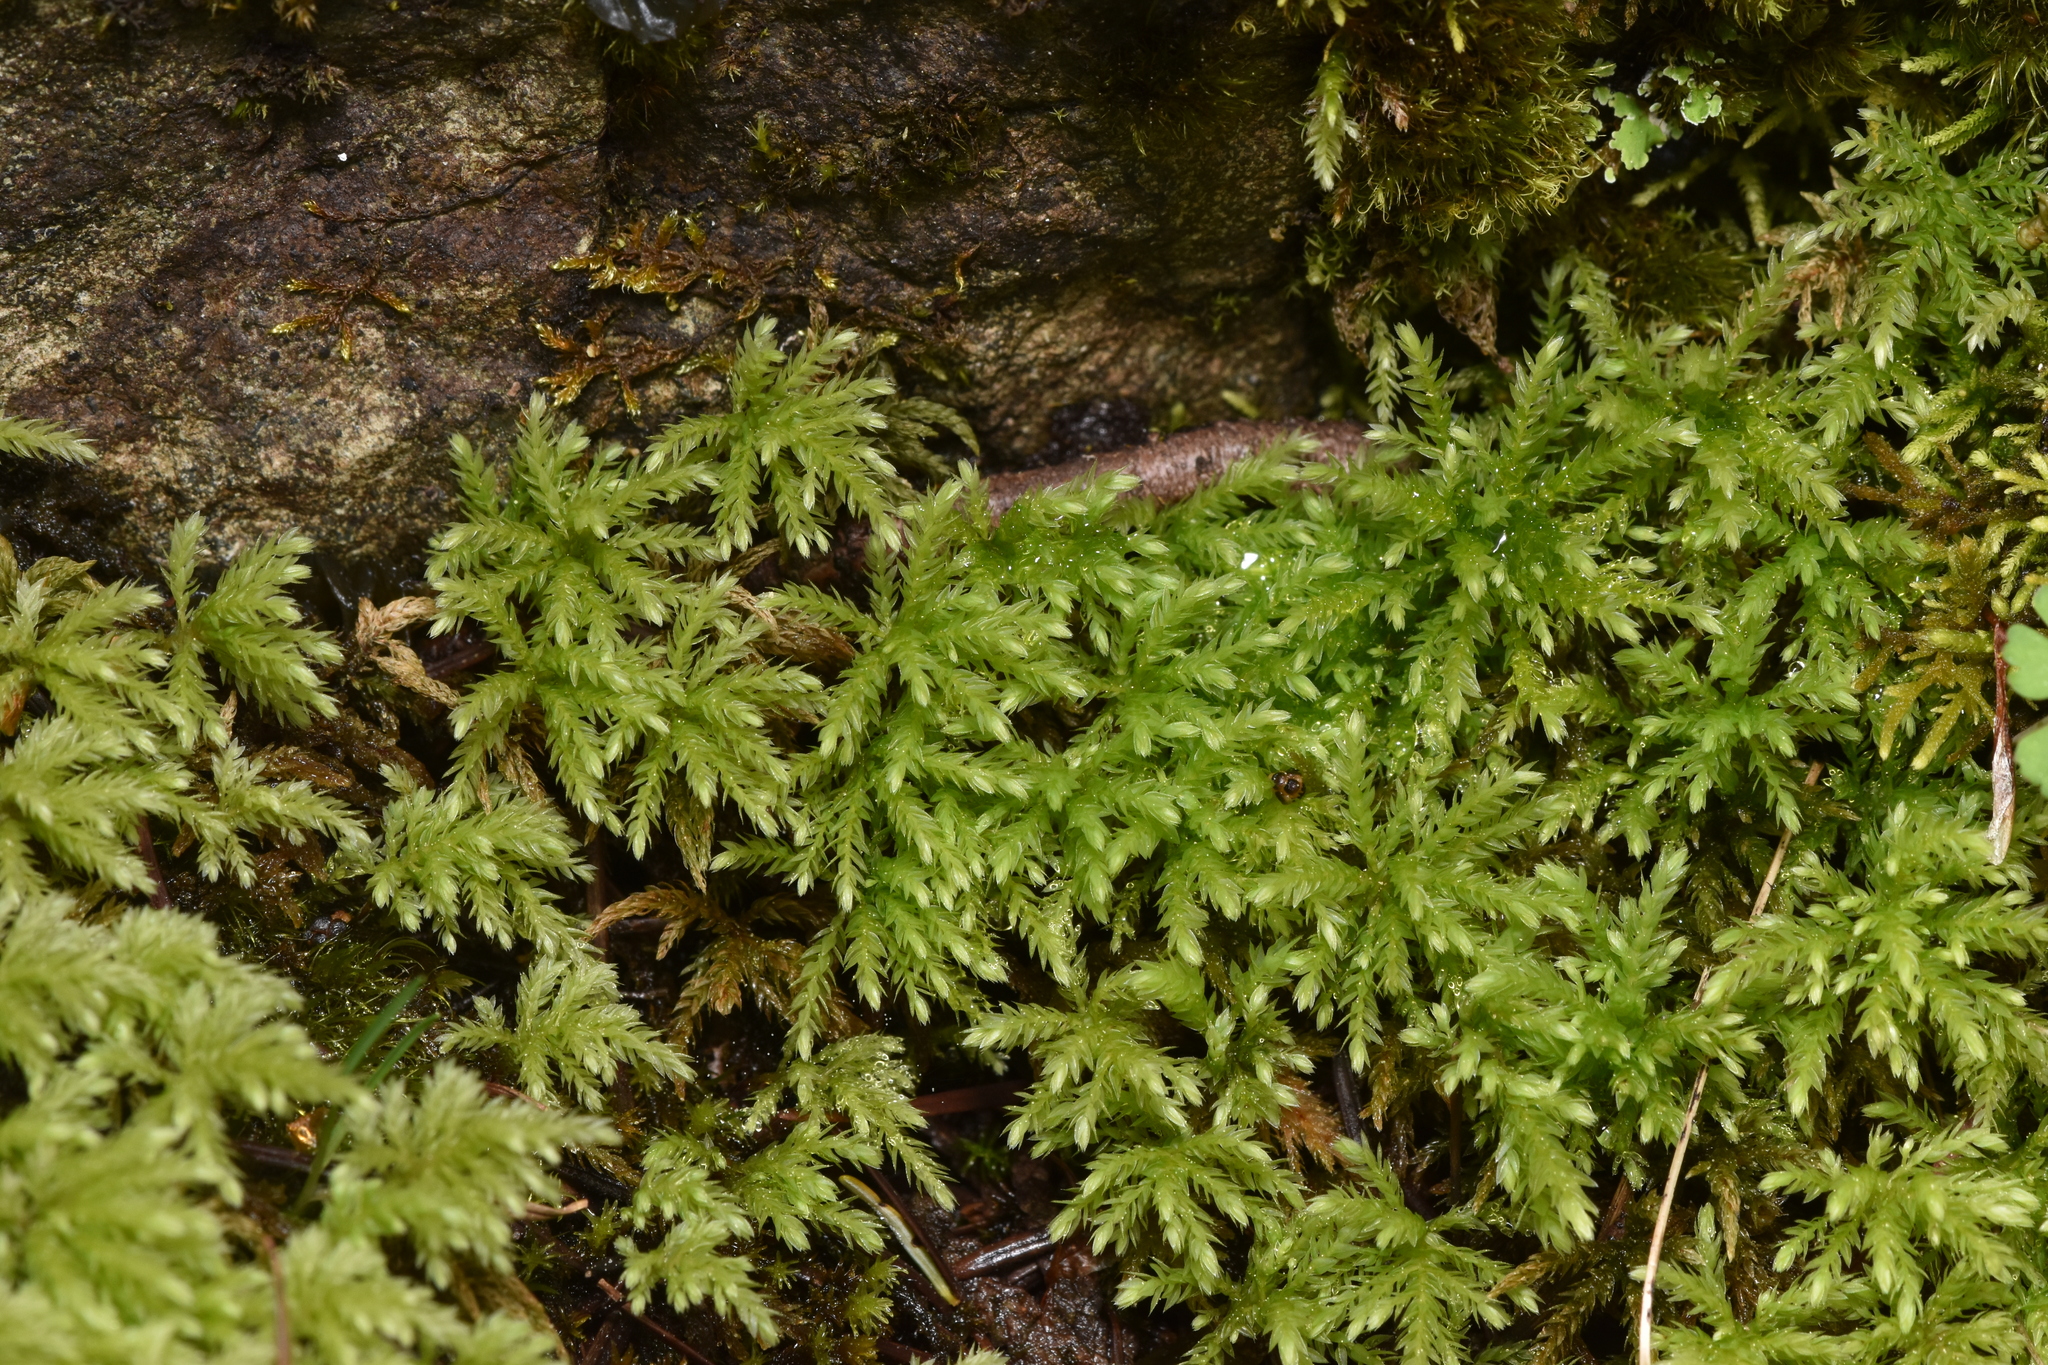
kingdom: Plantae
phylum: Bryophyta
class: Bryopsida
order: Bryales
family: Mniaceae
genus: Leucolepis
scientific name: Leucolepis acanthoneura
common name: Leucolepis umbrella moss
